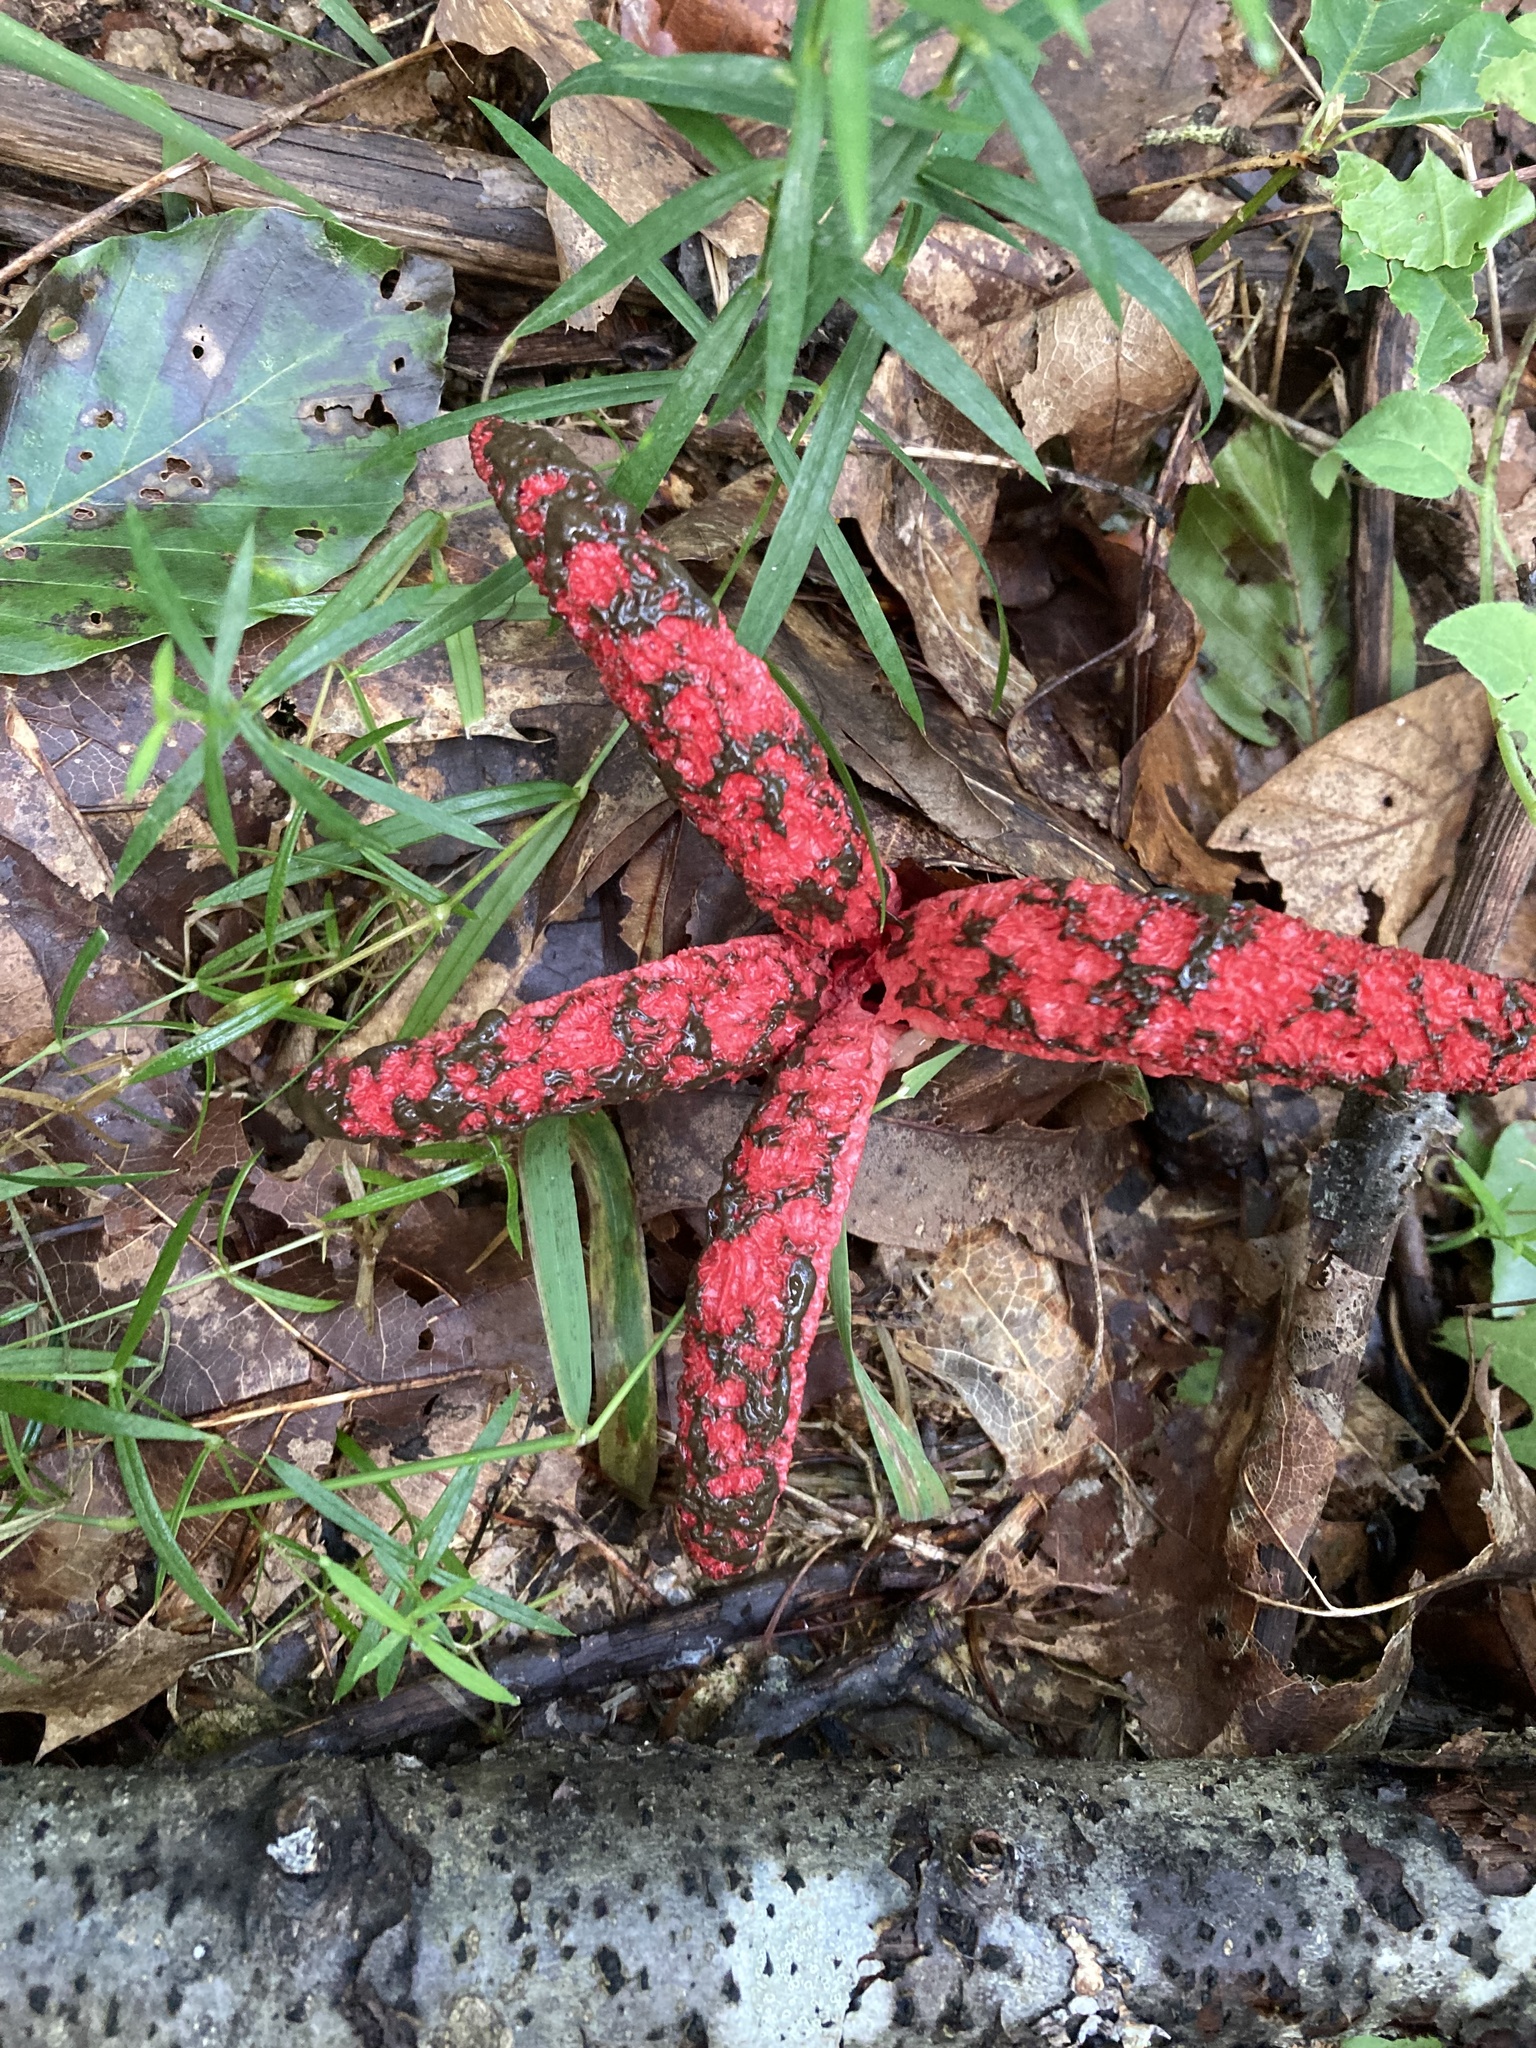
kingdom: Fungi
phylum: Basidiomycota
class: Agaricomycetes
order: Phallales
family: Phallaceae
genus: Clathrus
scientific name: Clathrus archeri
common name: Devil's fingers
